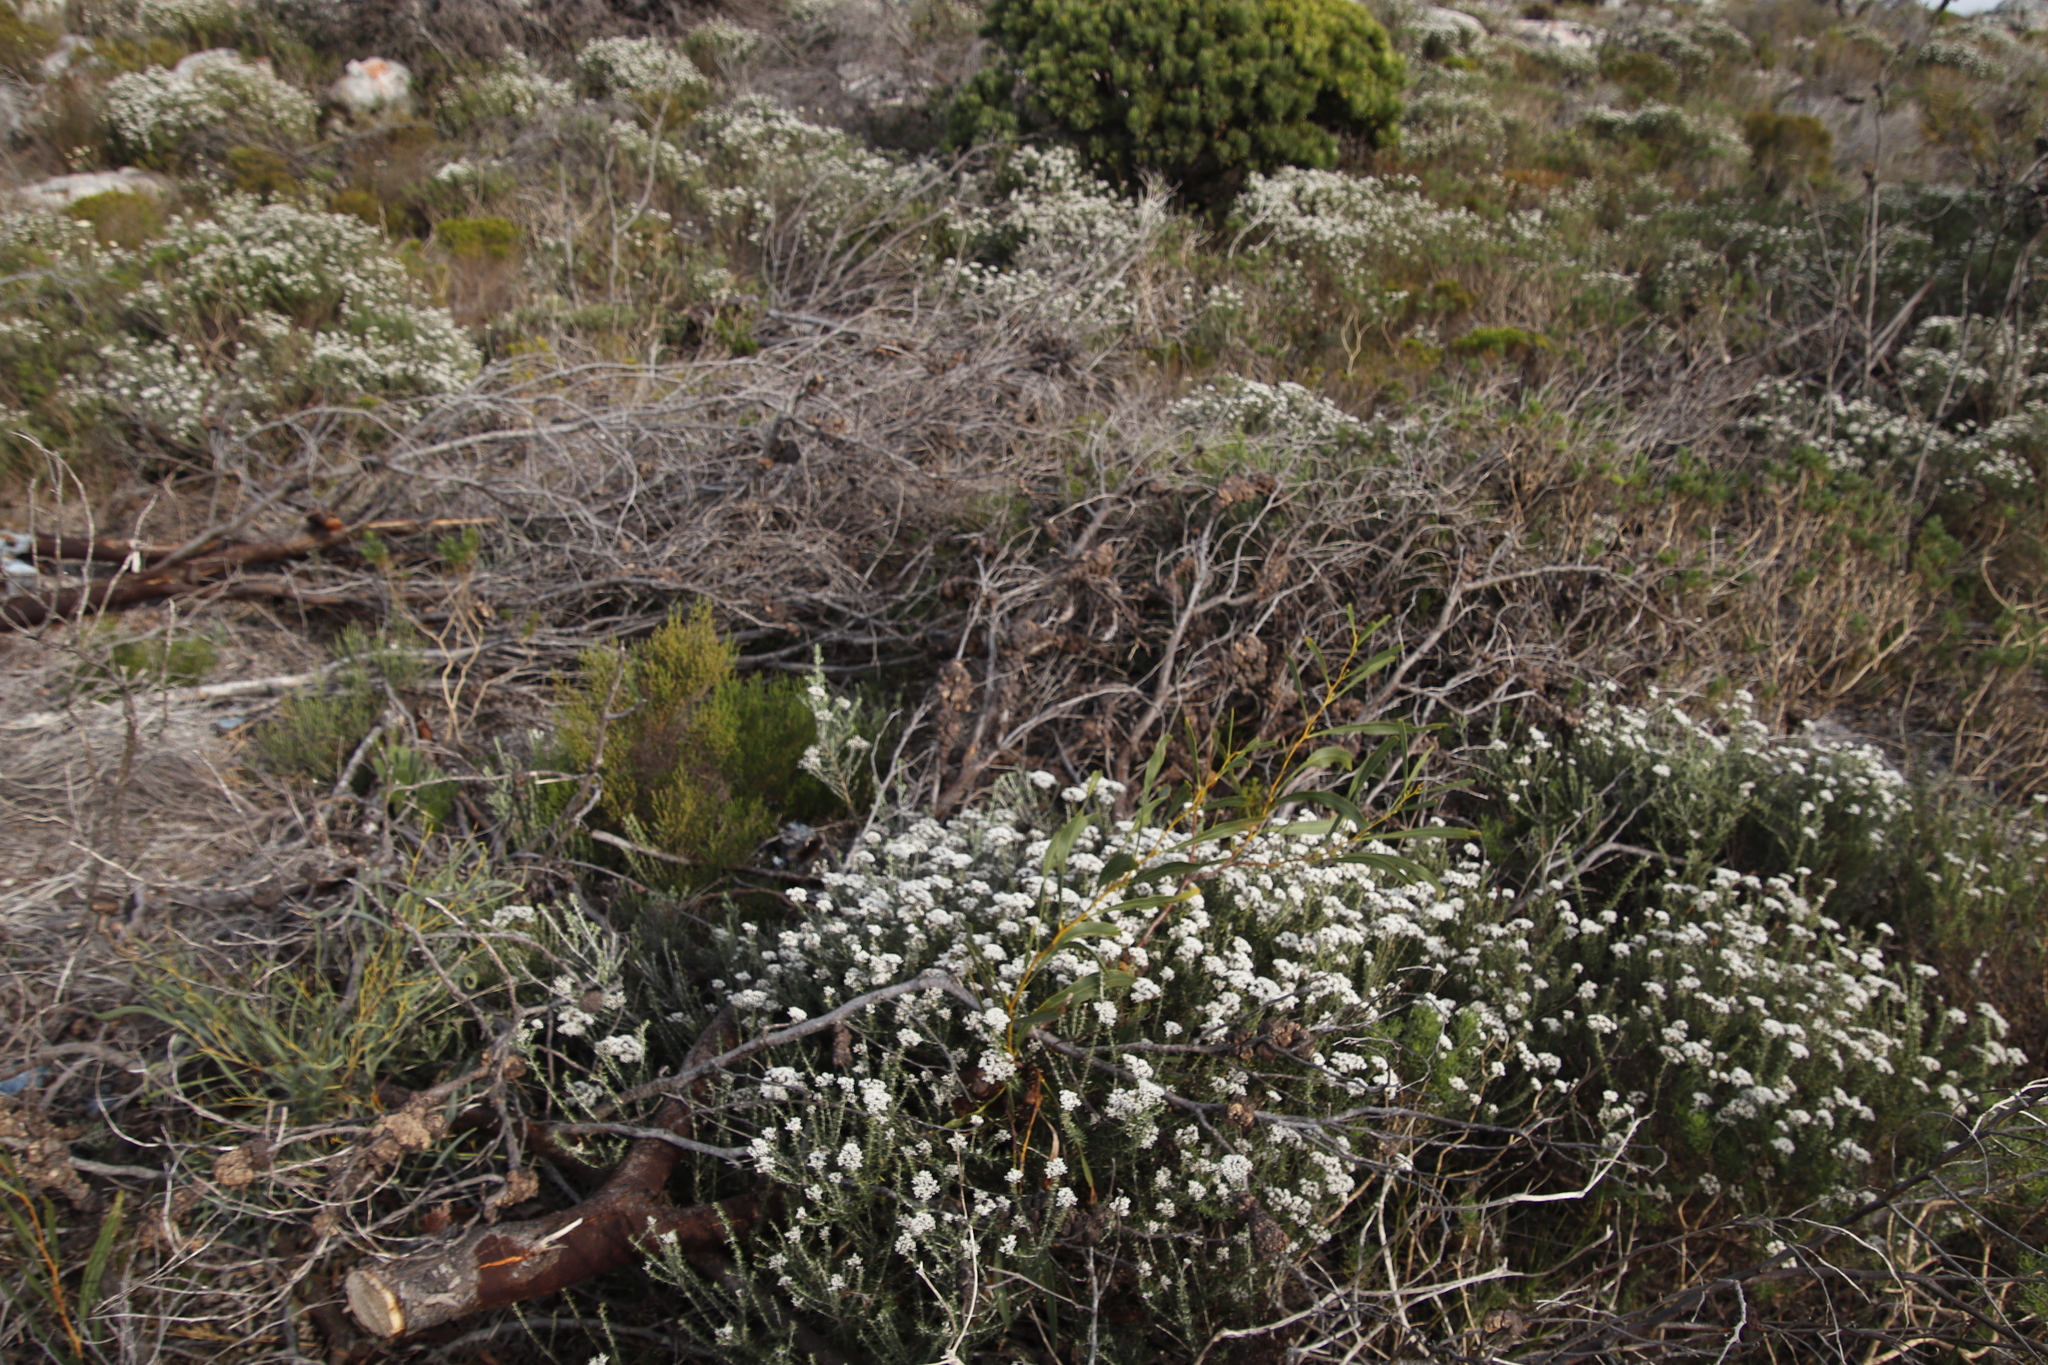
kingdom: Plantae
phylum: Tracheophyta
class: Magnoliopsida
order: Fabales
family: Fabaceae
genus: Acacia
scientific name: Acacia saligna
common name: Orange wattle
